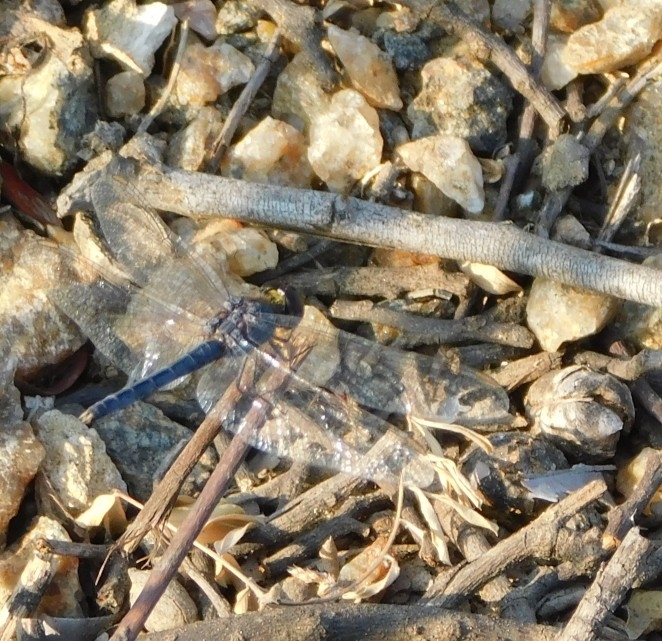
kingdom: Animalia
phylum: Arthropoda
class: Insecta
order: Odonata
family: Libellulidae
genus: Indothemis
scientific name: Indothemis carnatica
